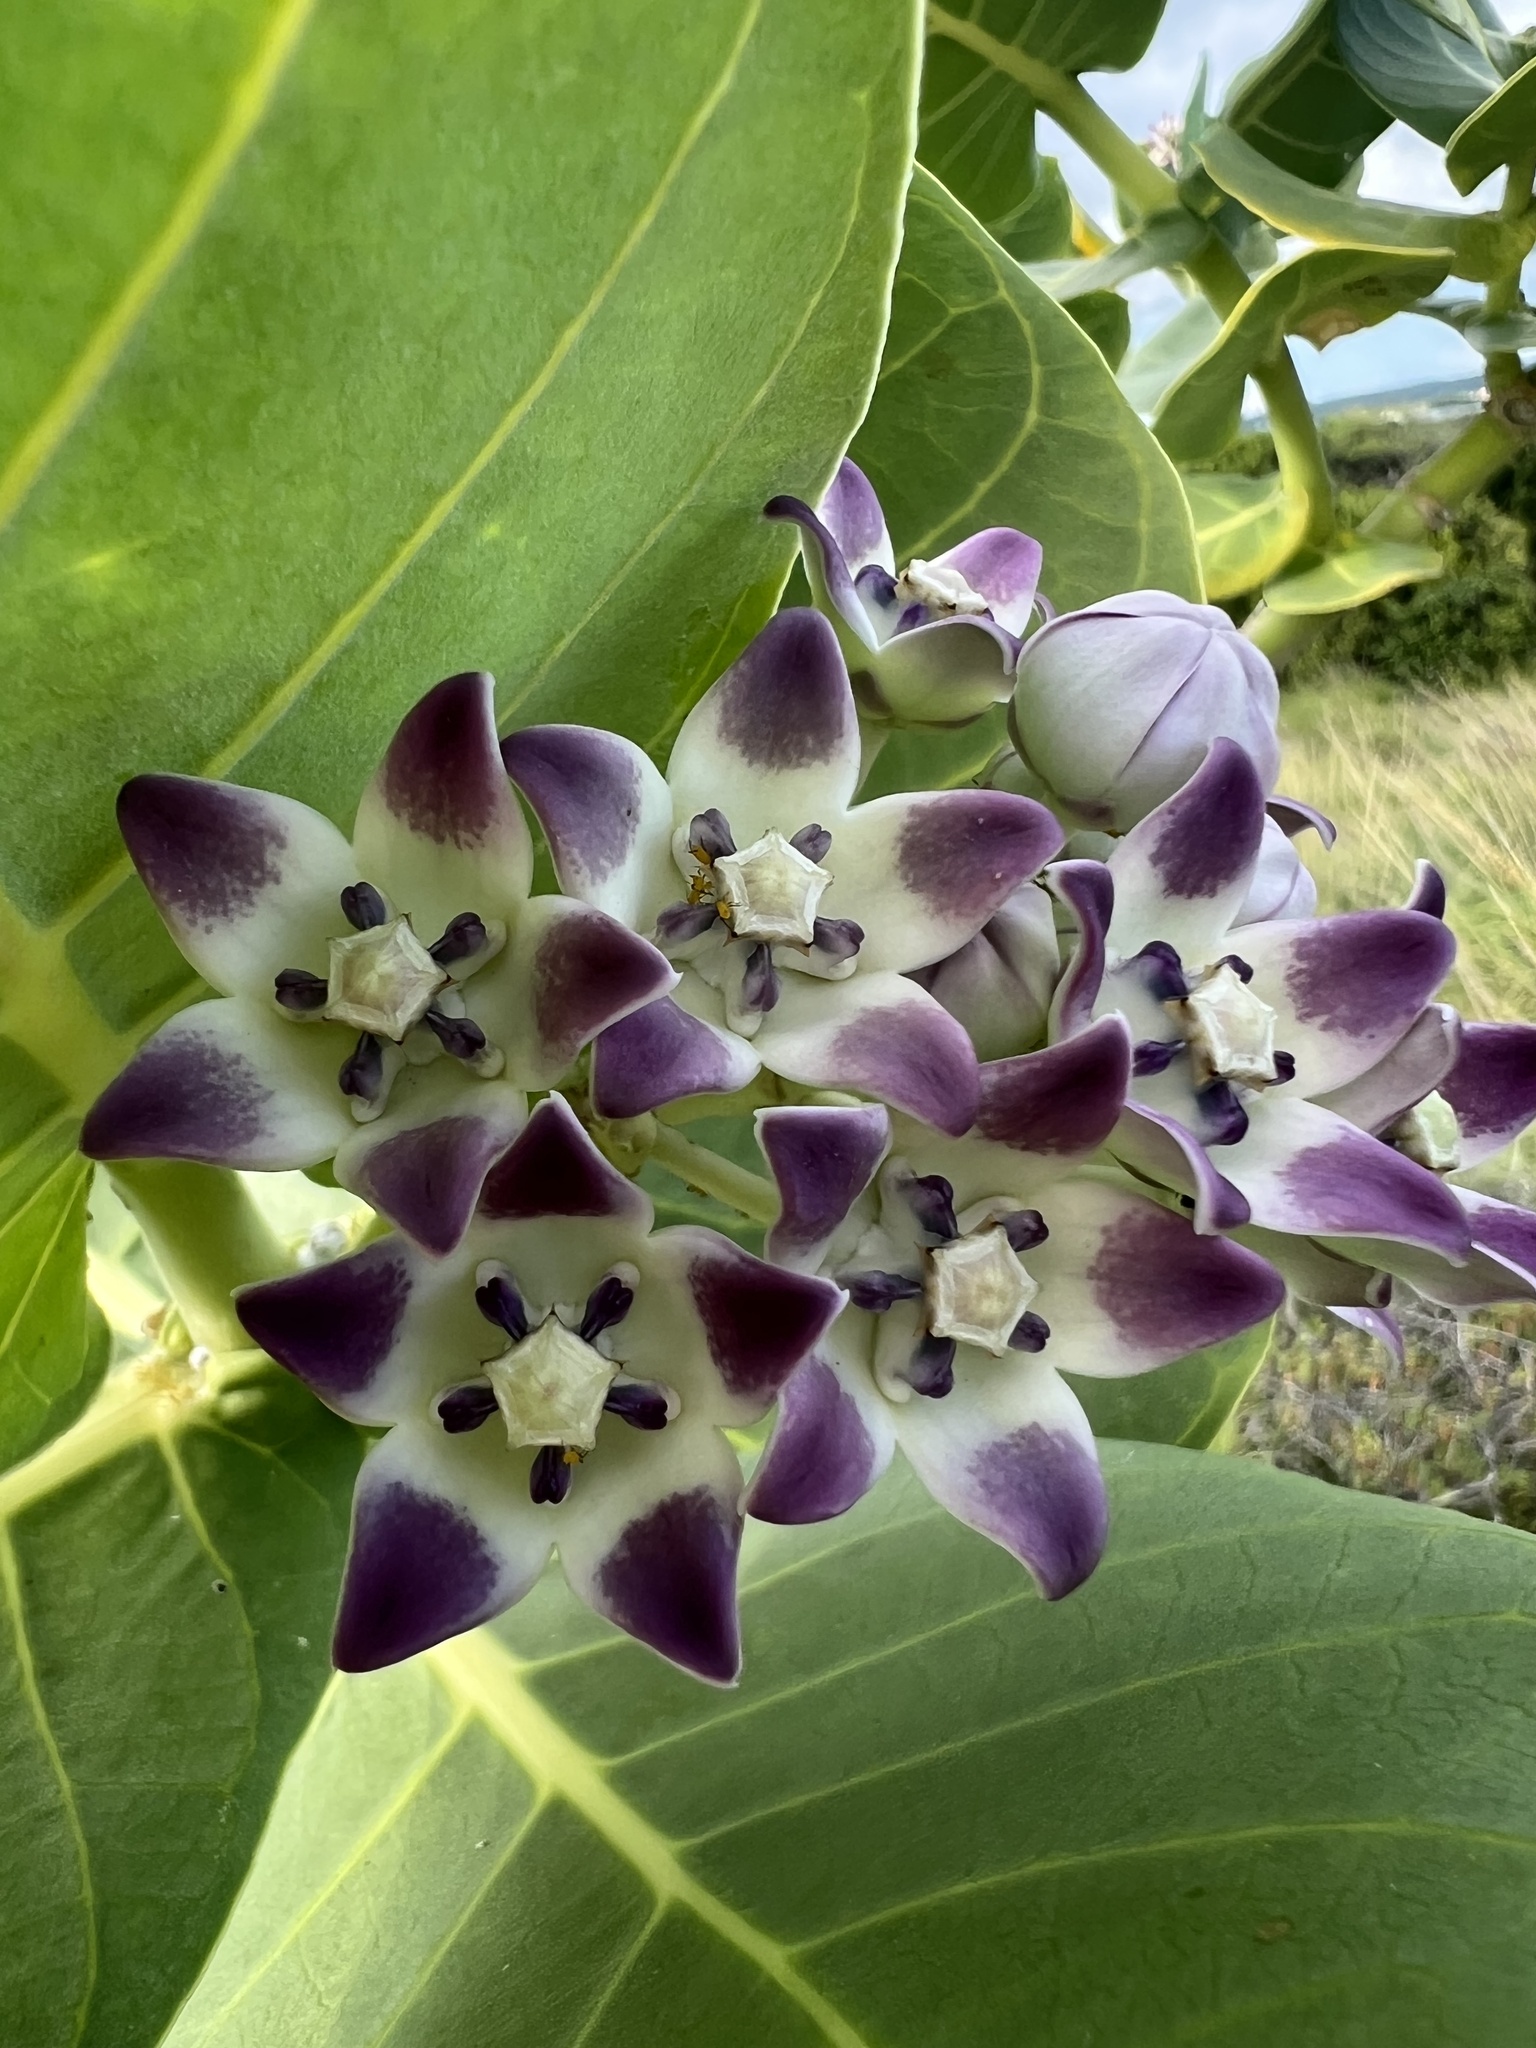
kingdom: Plantae
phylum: Tracheophyta
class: Magnoliopsida
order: Gentianales
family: Apocynaceae
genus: Calotropis
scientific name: Calotropis procera
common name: Roostertree
